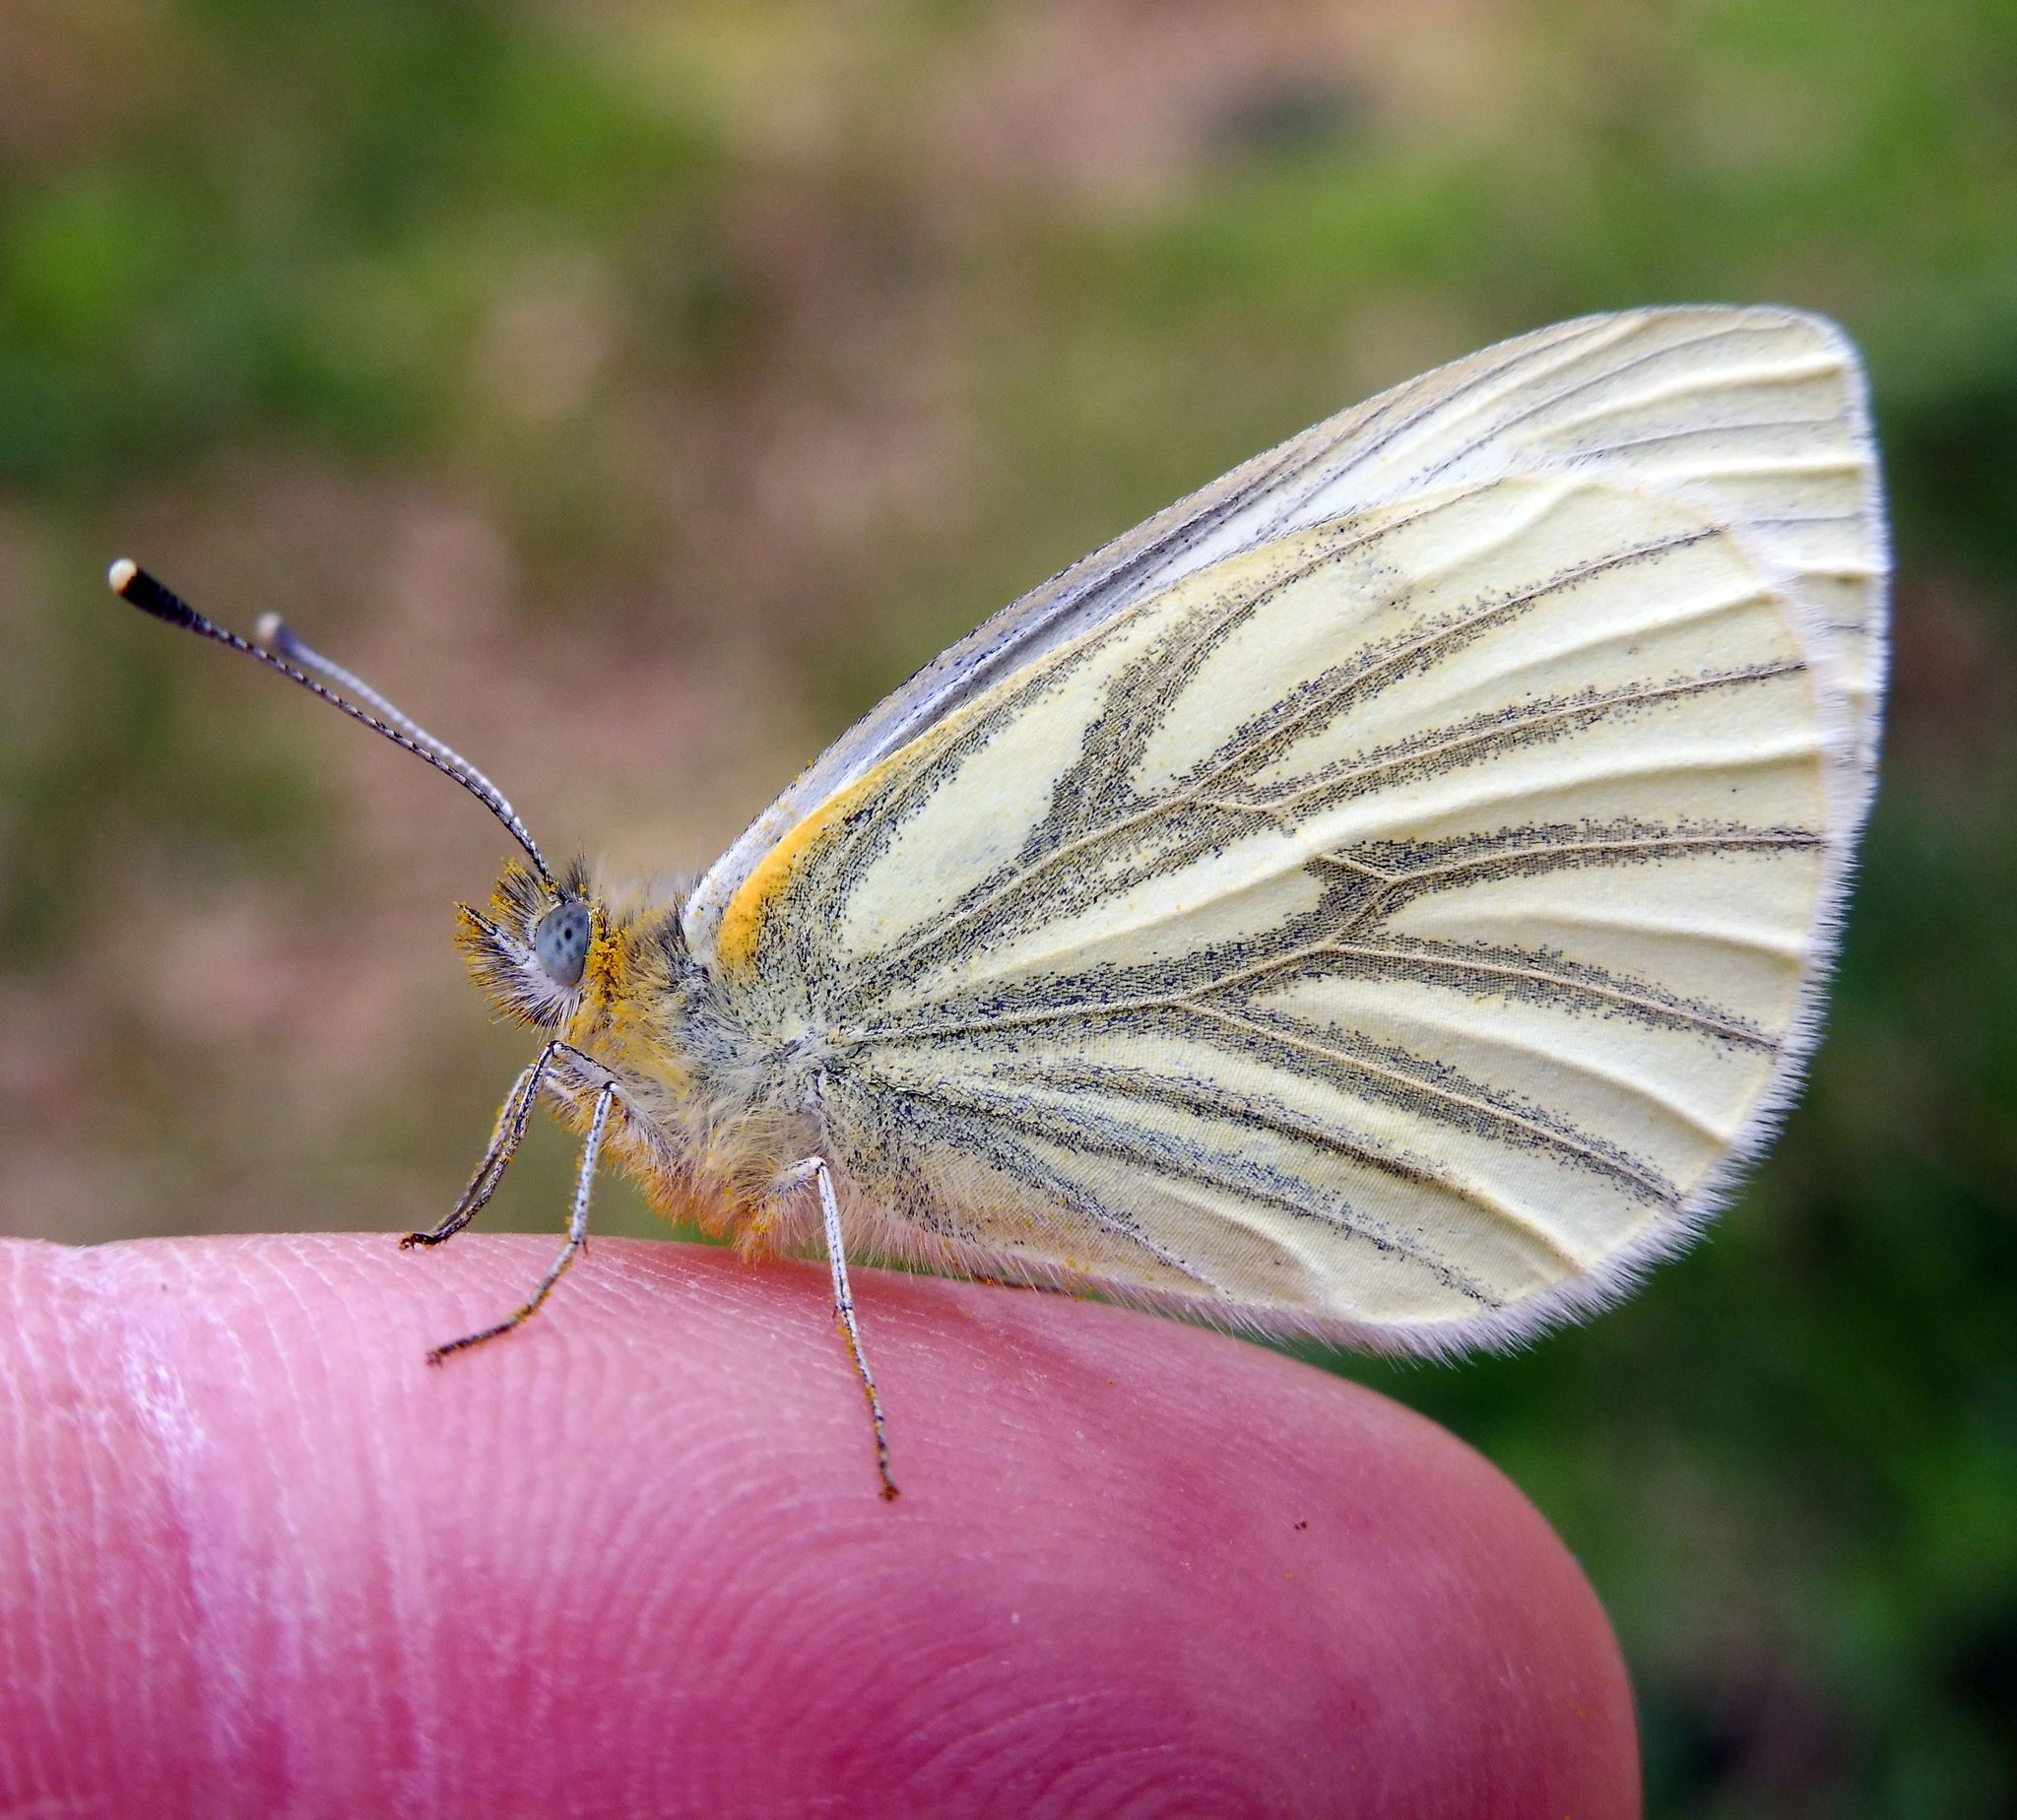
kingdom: Animalia
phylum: Arthropoda
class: Insecta
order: Lepidoptera
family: Pieridae
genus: Pieris
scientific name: Pieris napi
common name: Green-veined white
